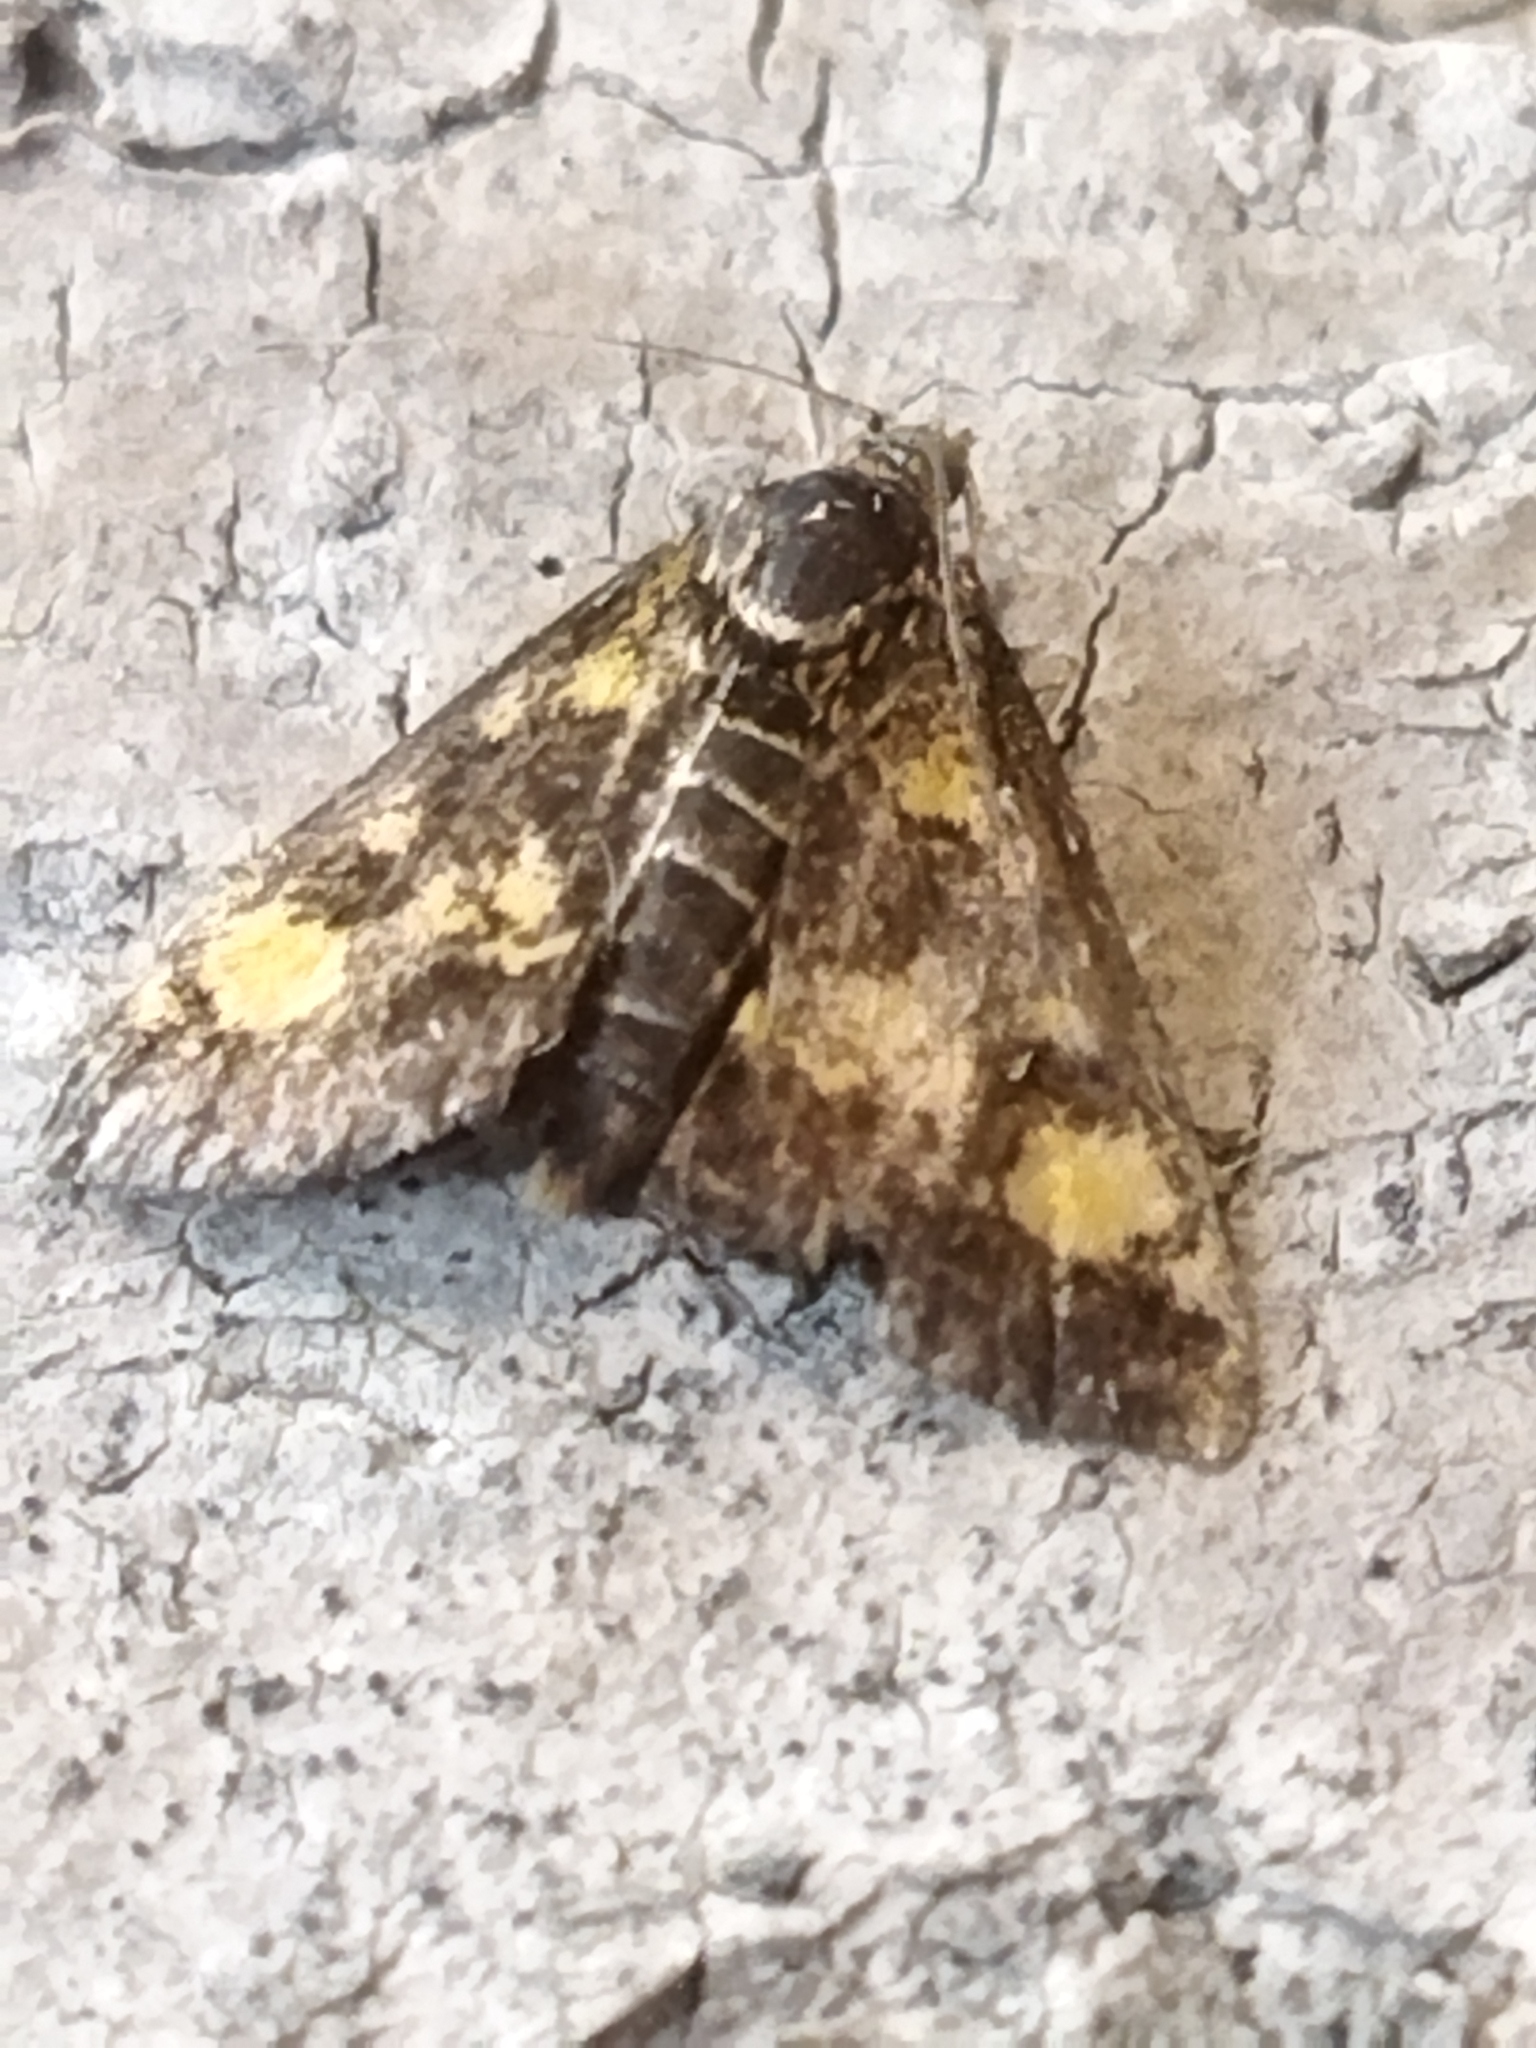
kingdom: Animalia
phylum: Arthropoda
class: Insecta
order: Lepidoptera
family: Crambidae
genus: Pyrausta
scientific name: Pyrausta aurata
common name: Small purple & gold
